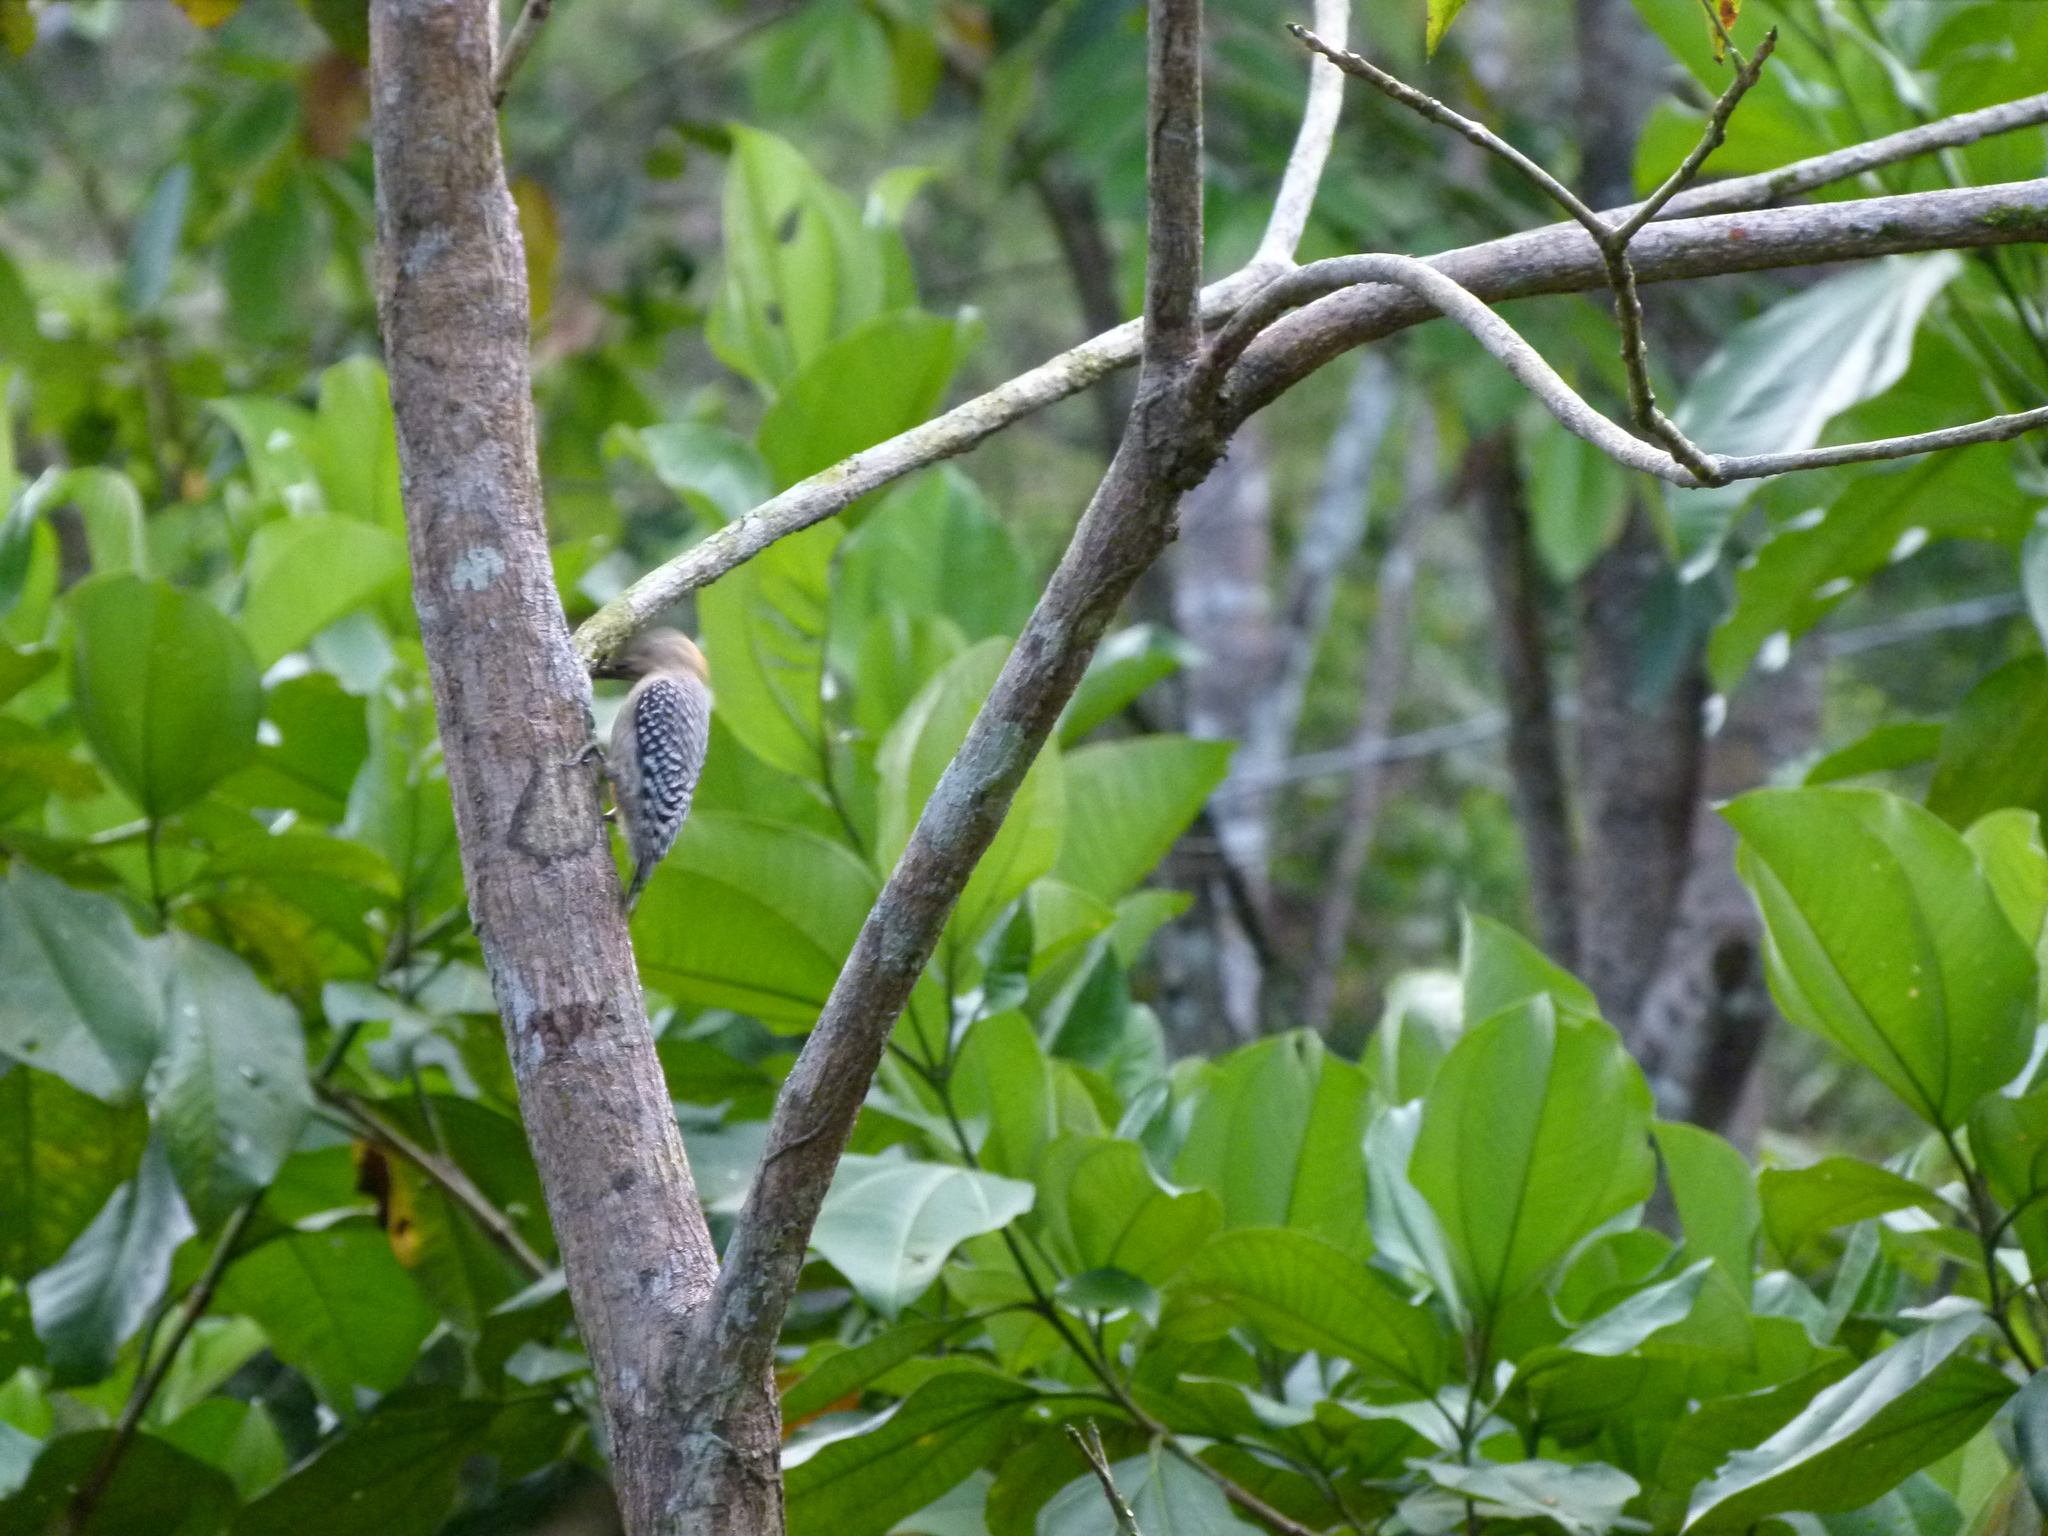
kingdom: Animalia
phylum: Chordata
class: Aves
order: Piciformes
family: Picidae
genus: Melanerpes
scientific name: Melanerpes rubricapillus
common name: Red-crowned woodpecker
